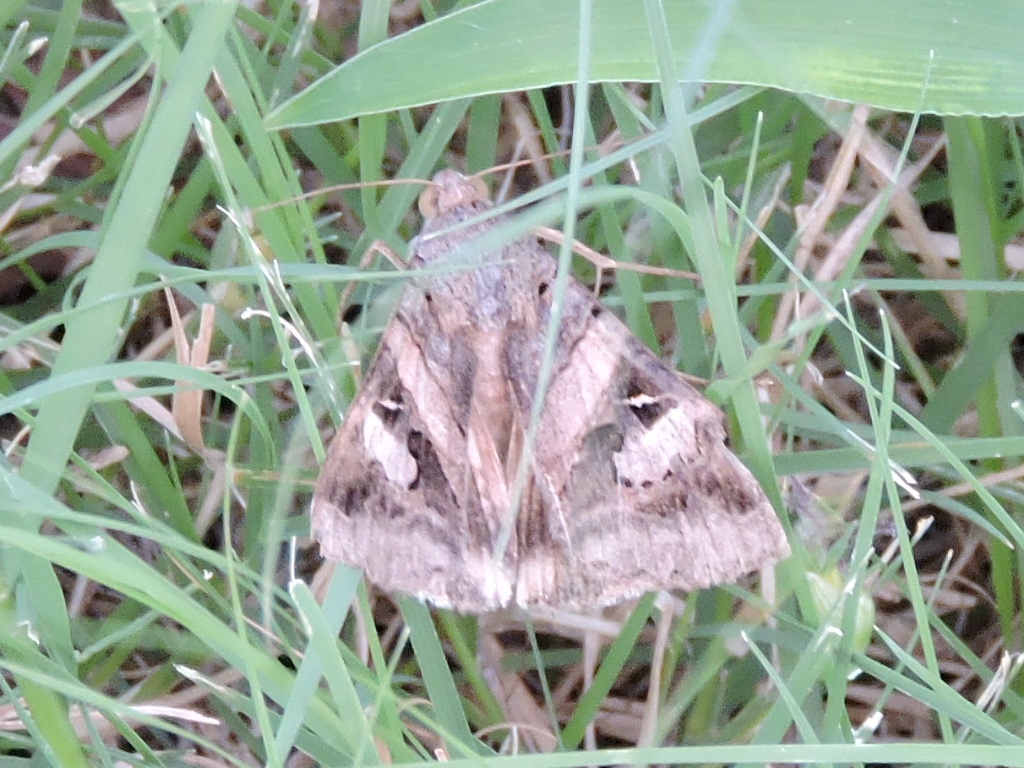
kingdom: Animalia
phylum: Arthropoda
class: Insecta
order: Lepidoptera
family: Erebidae
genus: Melipotis
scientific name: Melipotis indomita
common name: Moth
